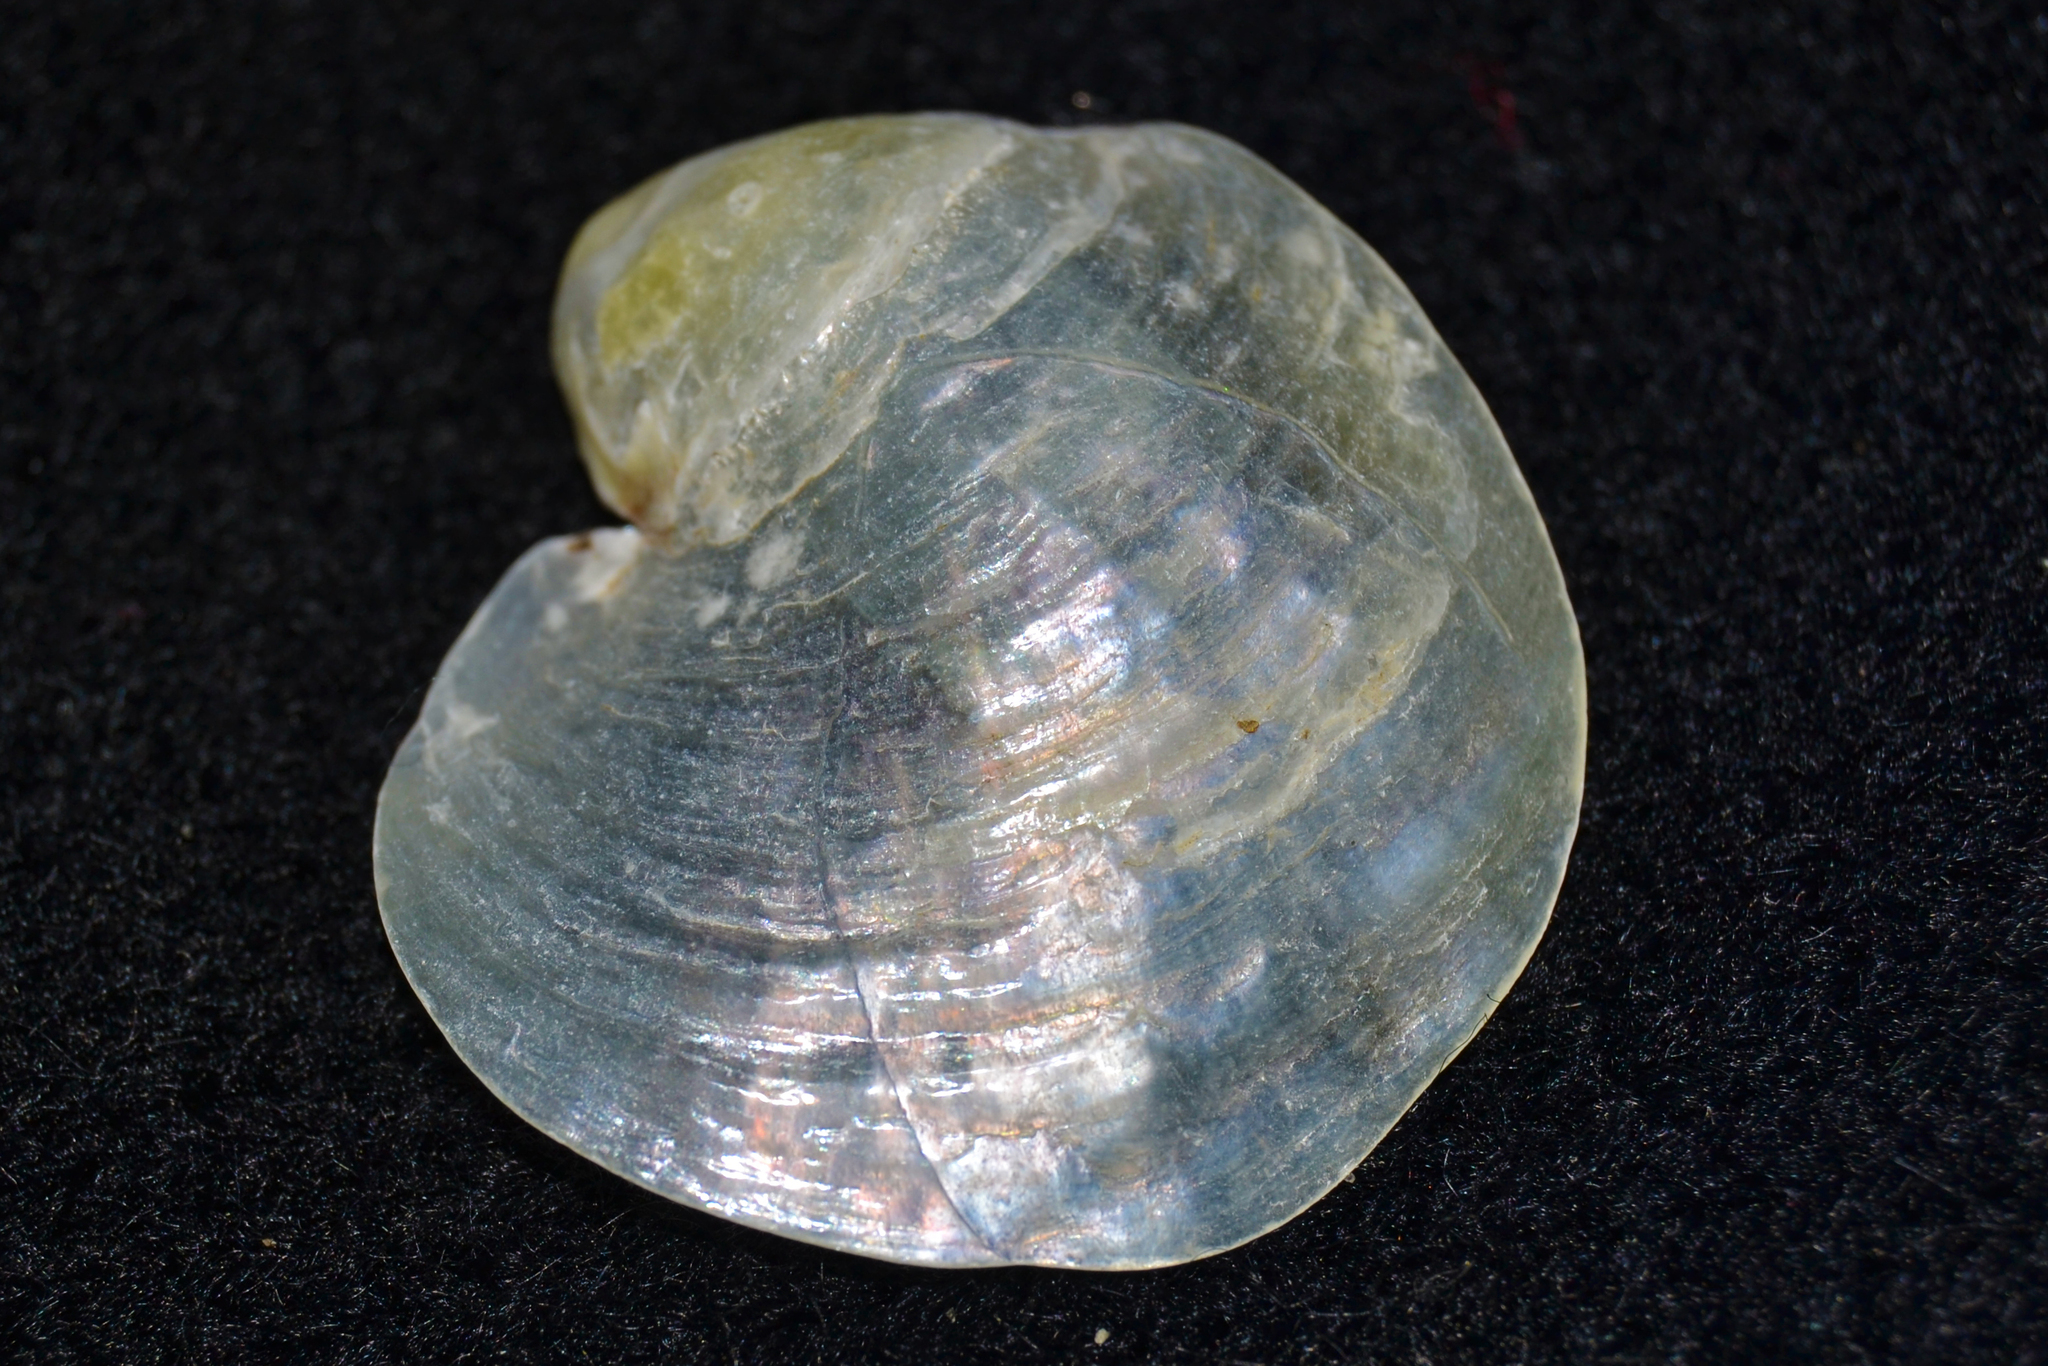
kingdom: Animalia
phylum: Mollusca
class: Bivalvia
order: Pectinida
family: Anomiidae
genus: Anomia
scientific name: Anomia simplex
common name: Common jingle shell
